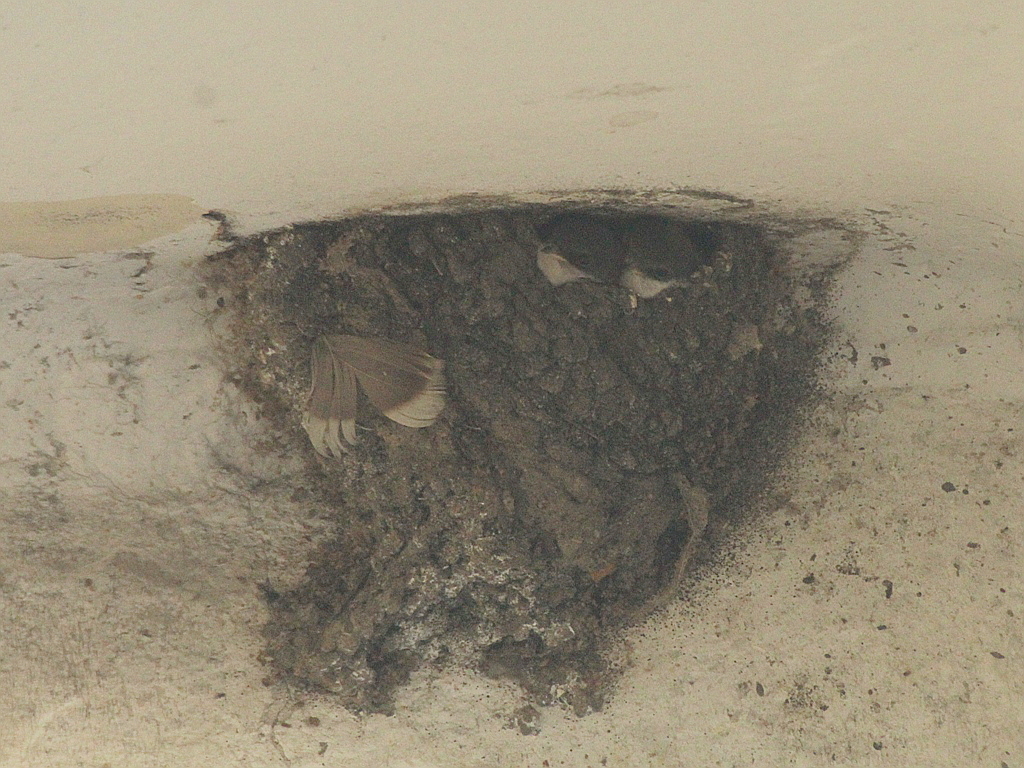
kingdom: Animalia
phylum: Chordata
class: Aves
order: Passeriformes
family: Hirundinidae
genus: Delichon
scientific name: Delichon urbicum
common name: Common house martin
